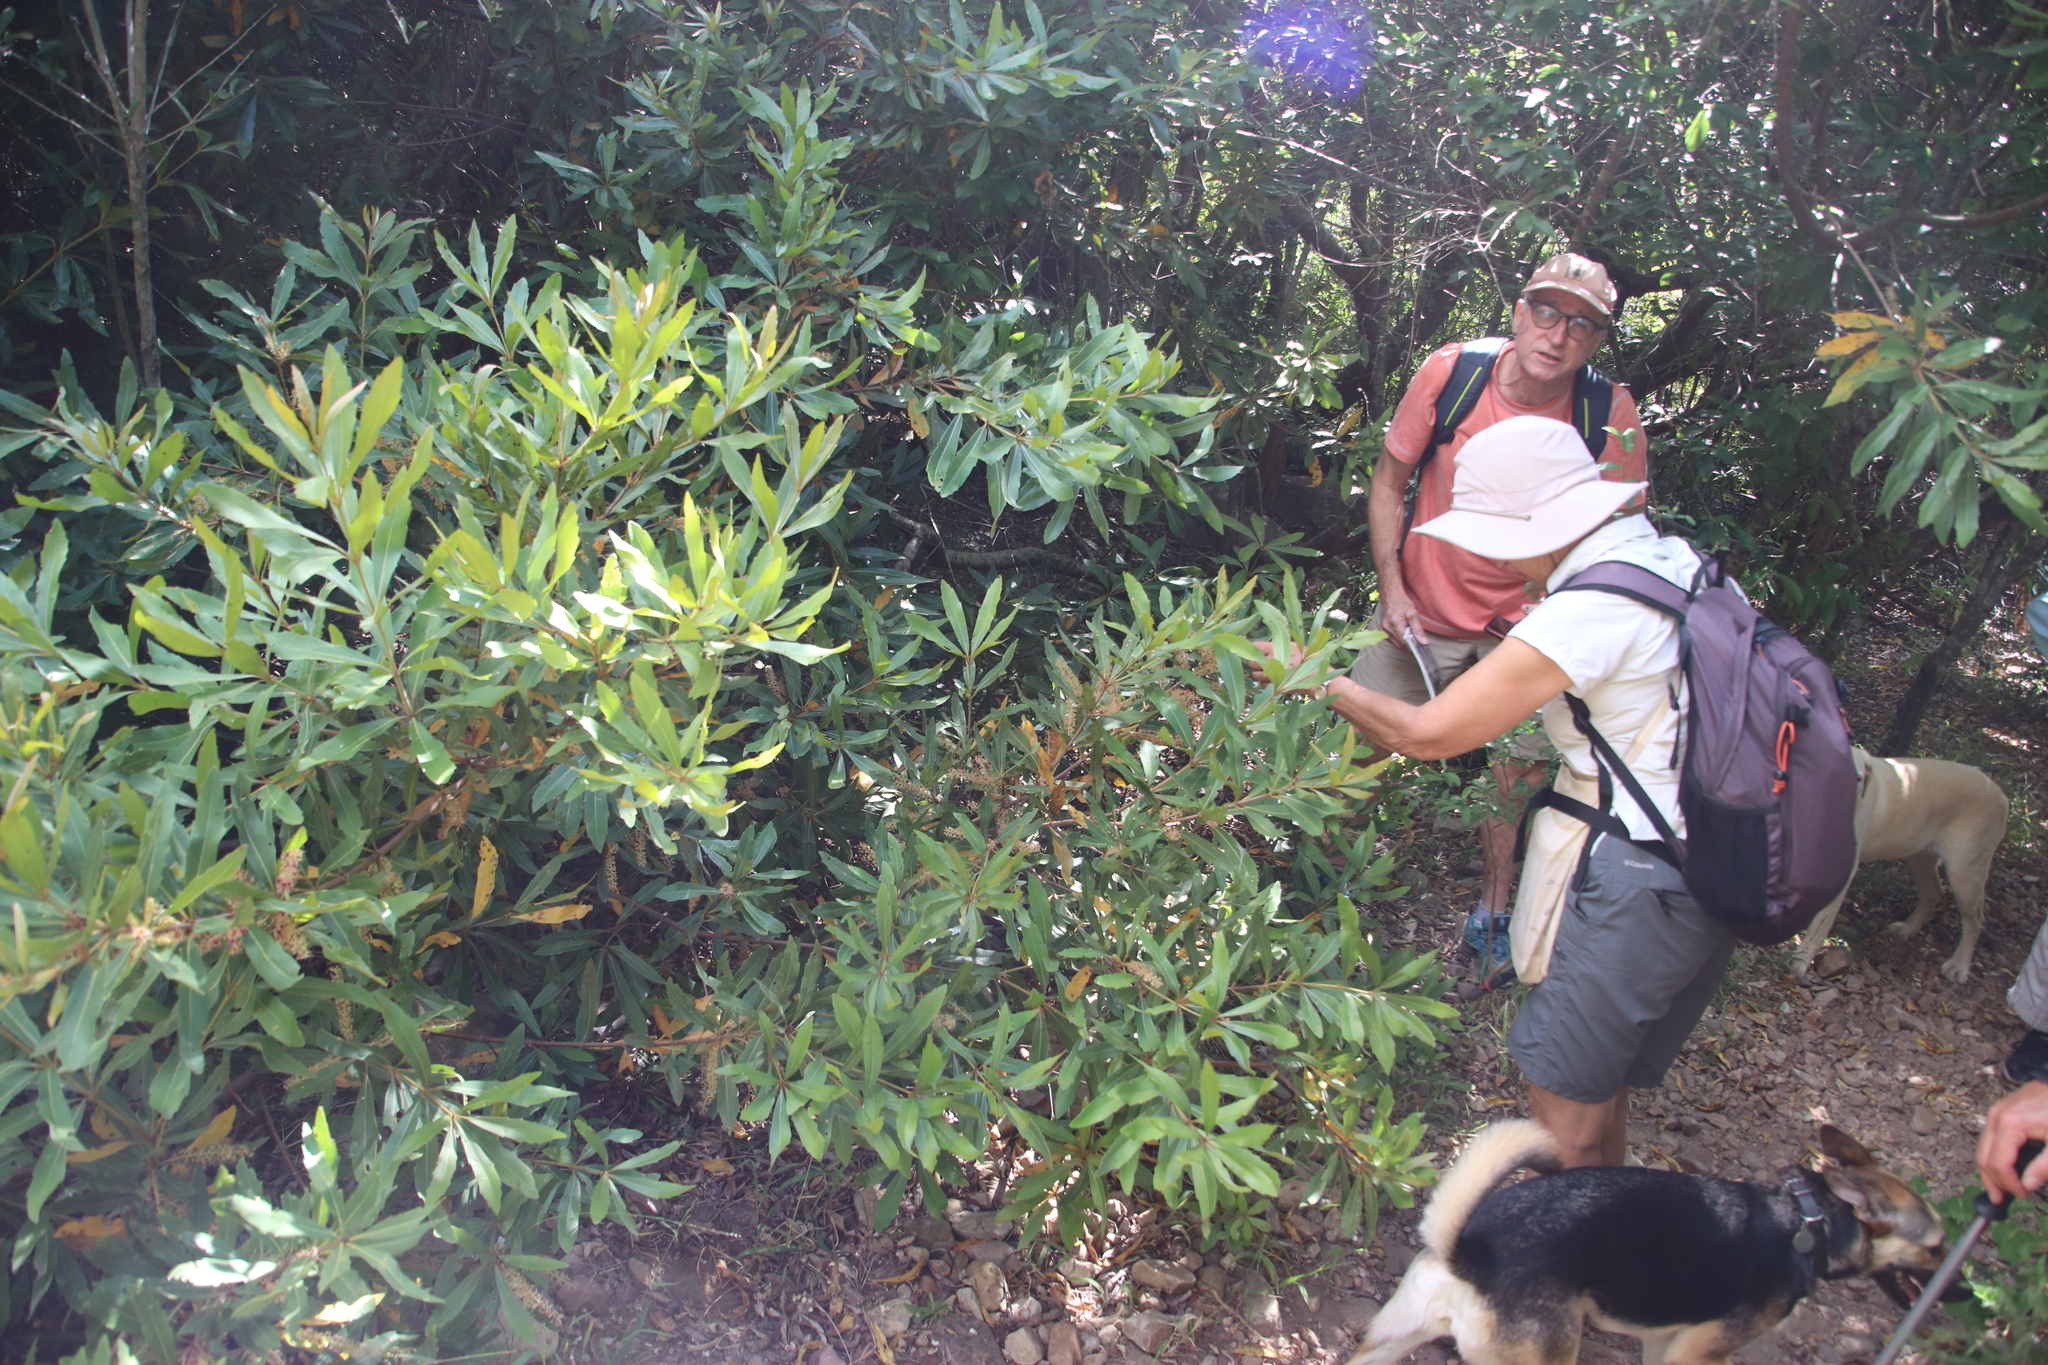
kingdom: Plantae
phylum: Tracheophyta
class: Magnoliopsida
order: Proteales
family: Proteaceae
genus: Brabejum
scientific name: Brabejum stellatifolium
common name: Wild almond
